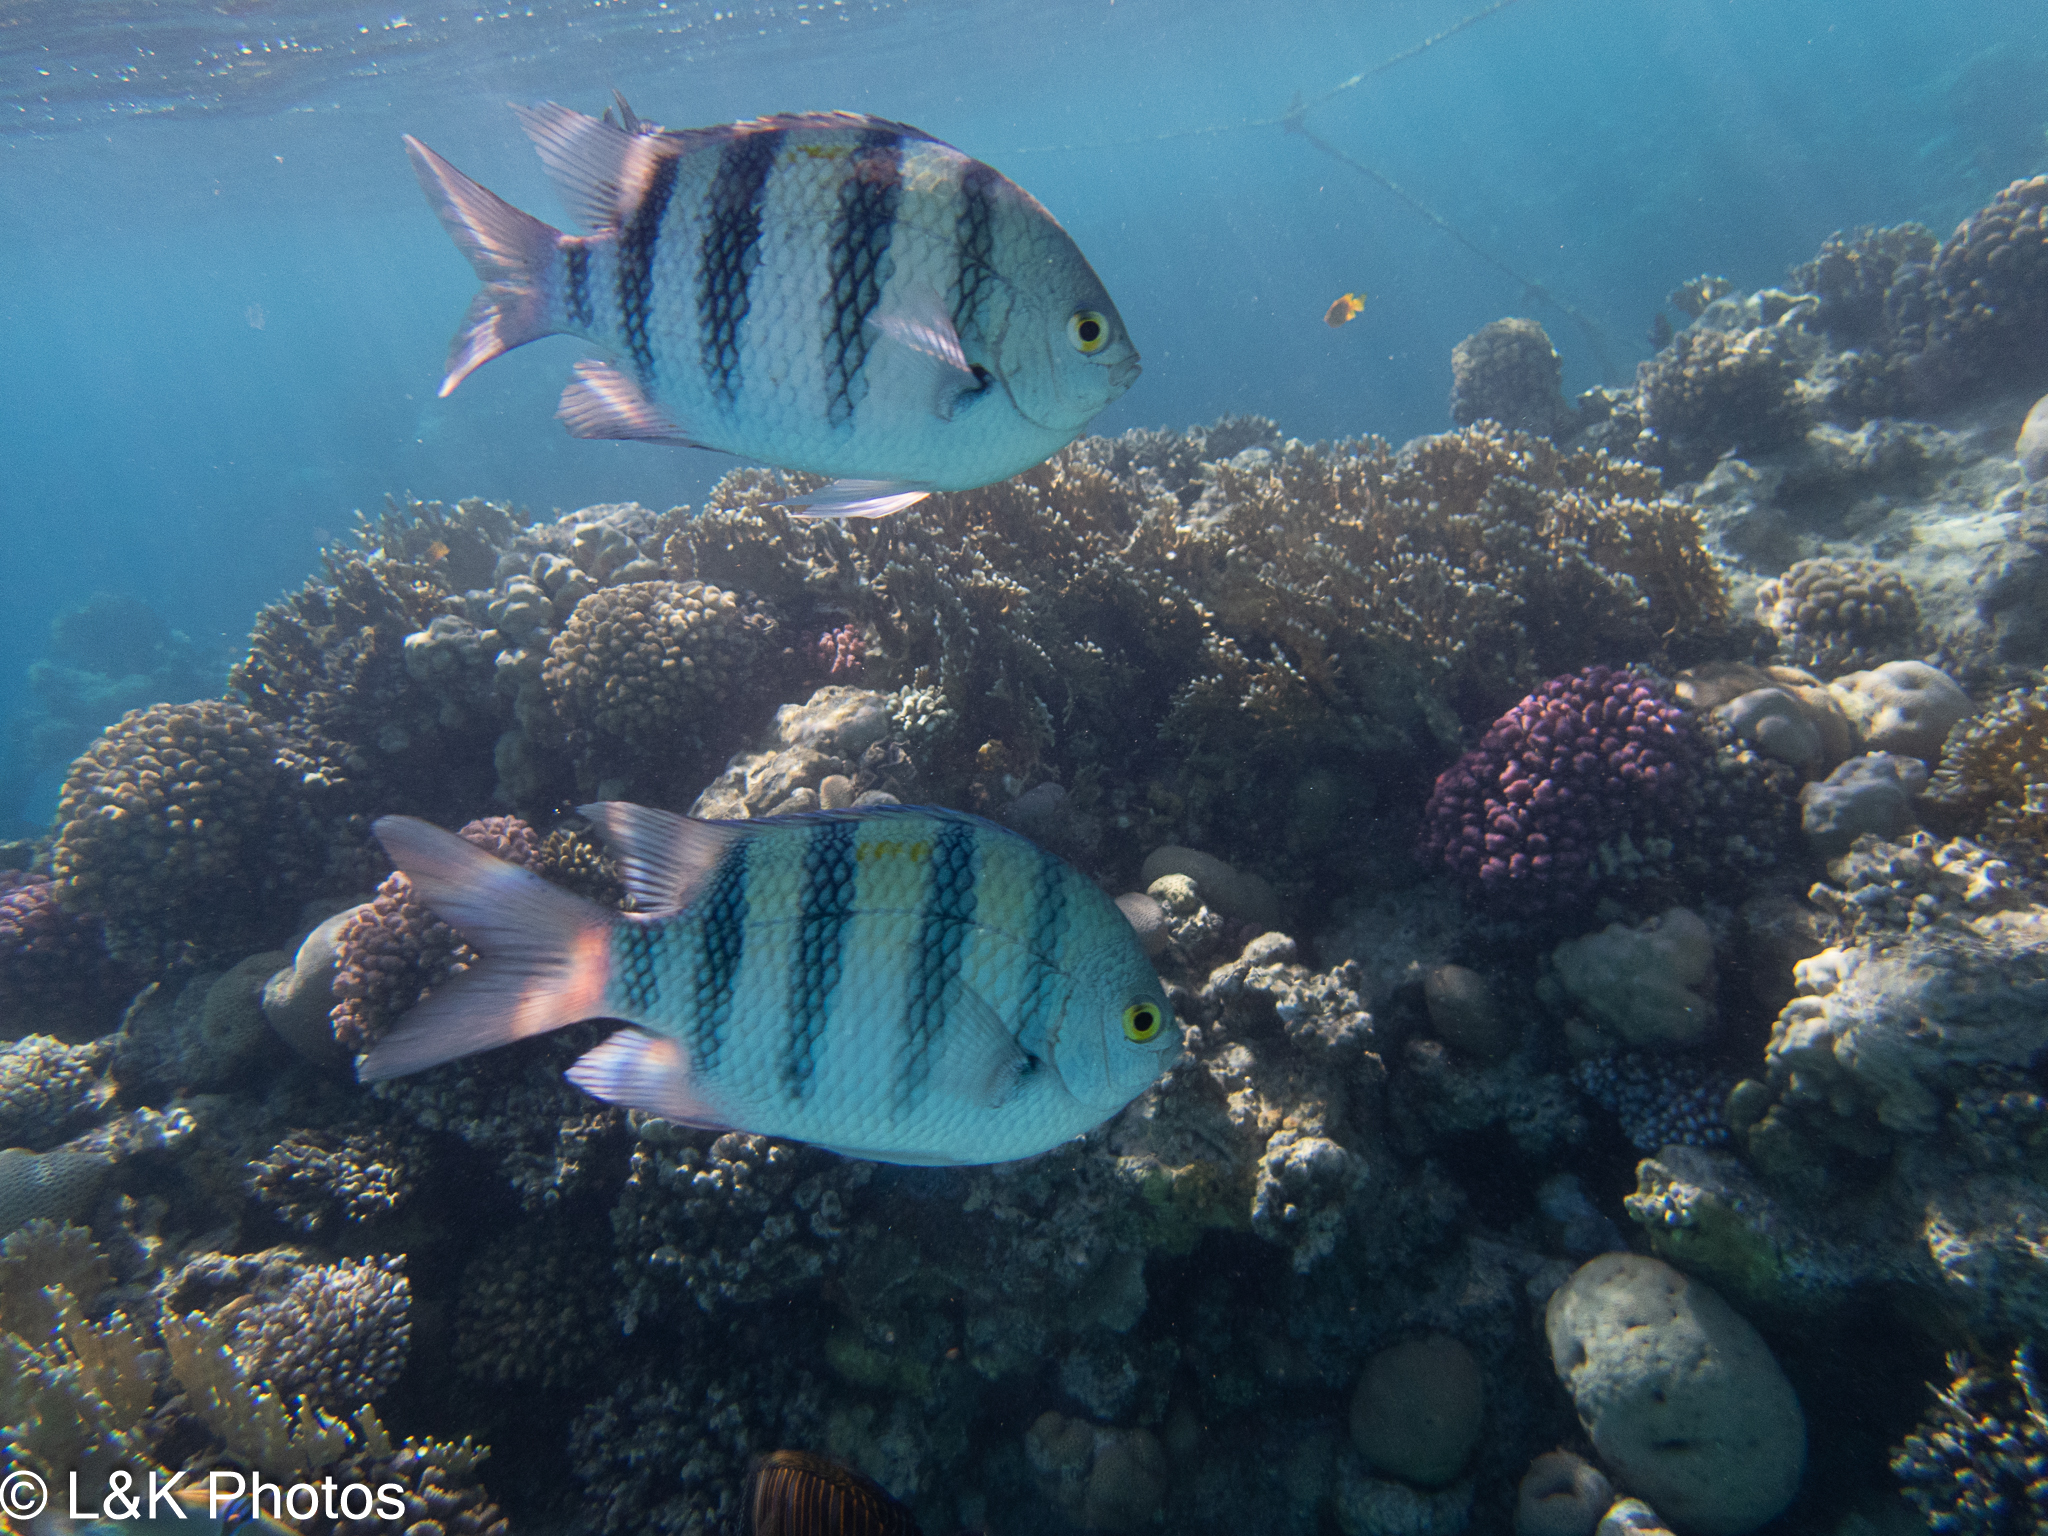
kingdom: Animalia
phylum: Chordata
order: Perciformes
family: Pomacentridae
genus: Abudefduf
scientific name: Abudefduf vaigiensis
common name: Indo-pacific sergeant
